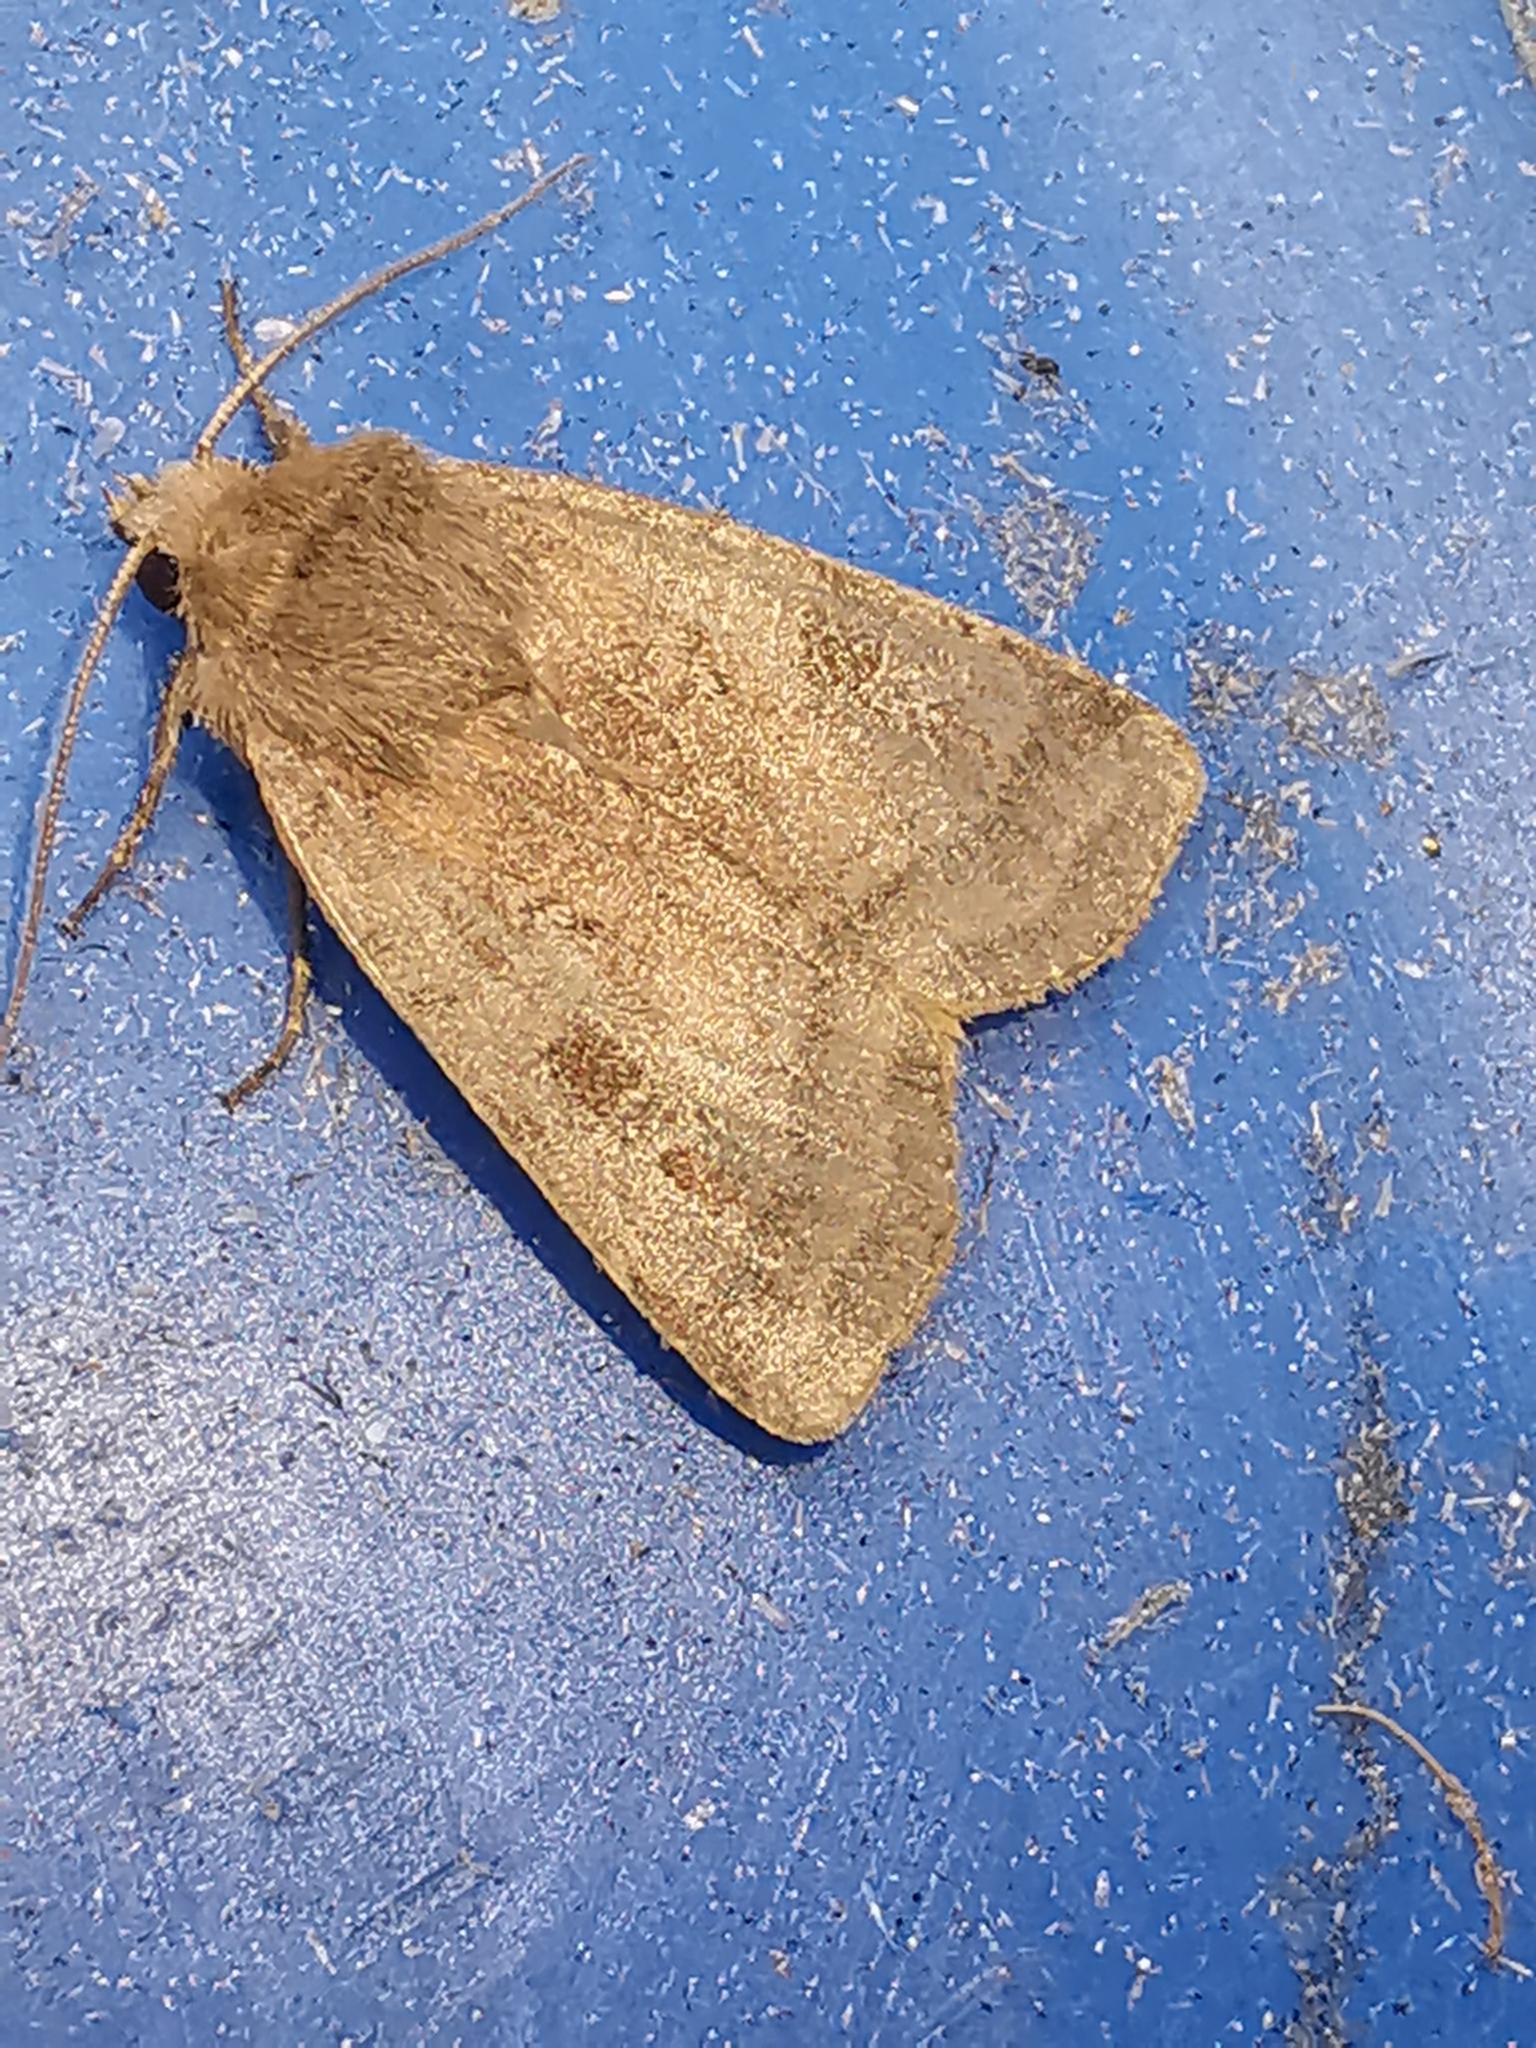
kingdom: Animalia
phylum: Arthropoda
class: Insecta
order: Lepidoptera
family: Noctuidae
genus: Diarsia
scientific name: Diarsia rubi
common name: Small square-spot
